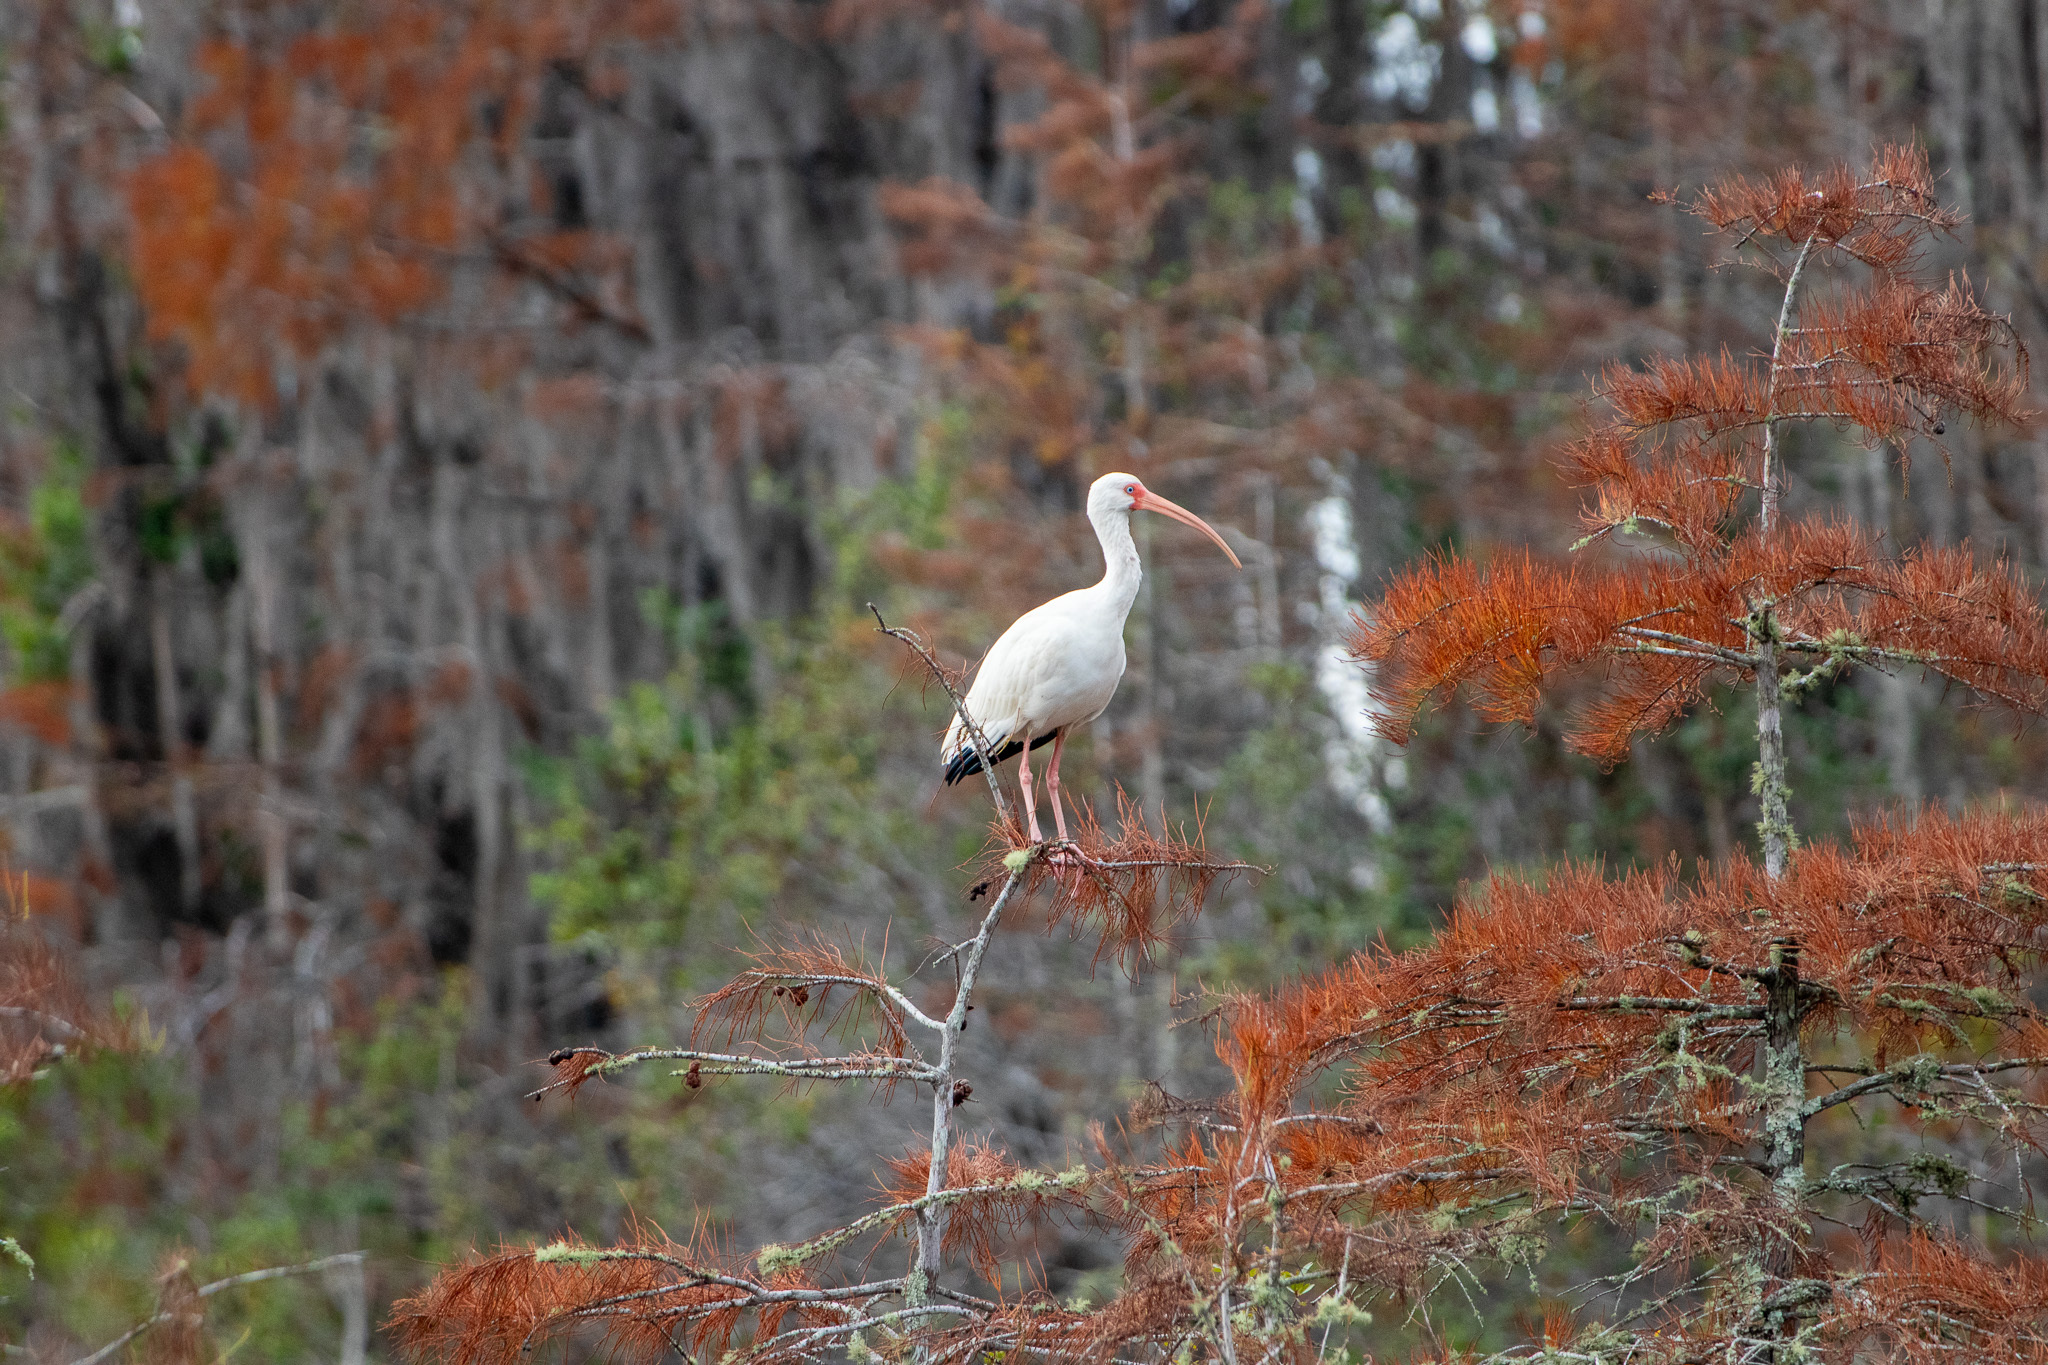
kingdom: Animalia
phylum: Chordata
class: Aves
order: Pelecaniformes
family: Threskiornithidae
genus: Eudocimus
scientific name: Eudocimus albus
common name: White ibis
